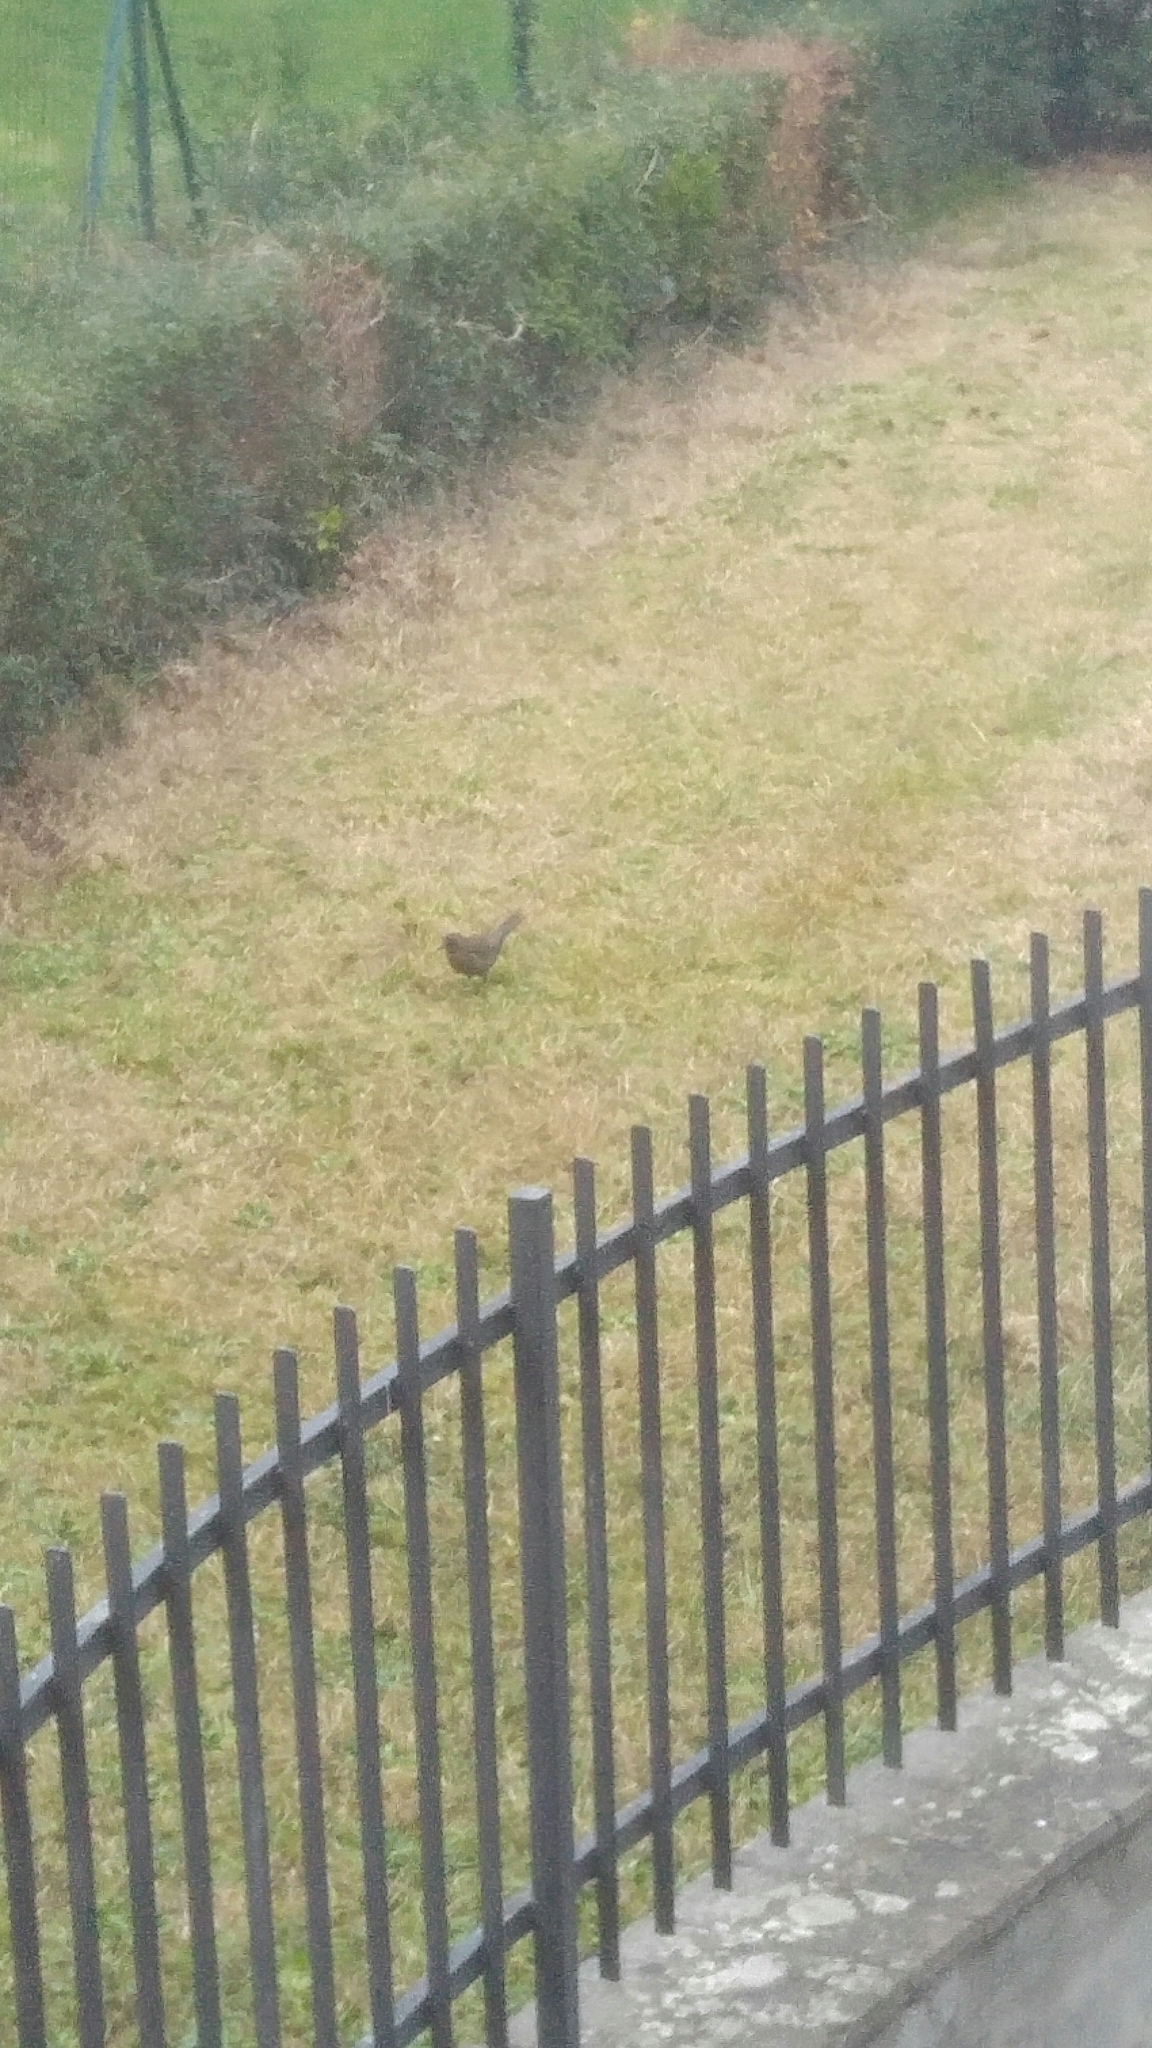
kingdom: Animalia
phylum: Chordata
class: Aves
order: Passeriformes
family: Turdidae
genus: Turdus
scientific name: Turdus merula
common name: Common blackbird
